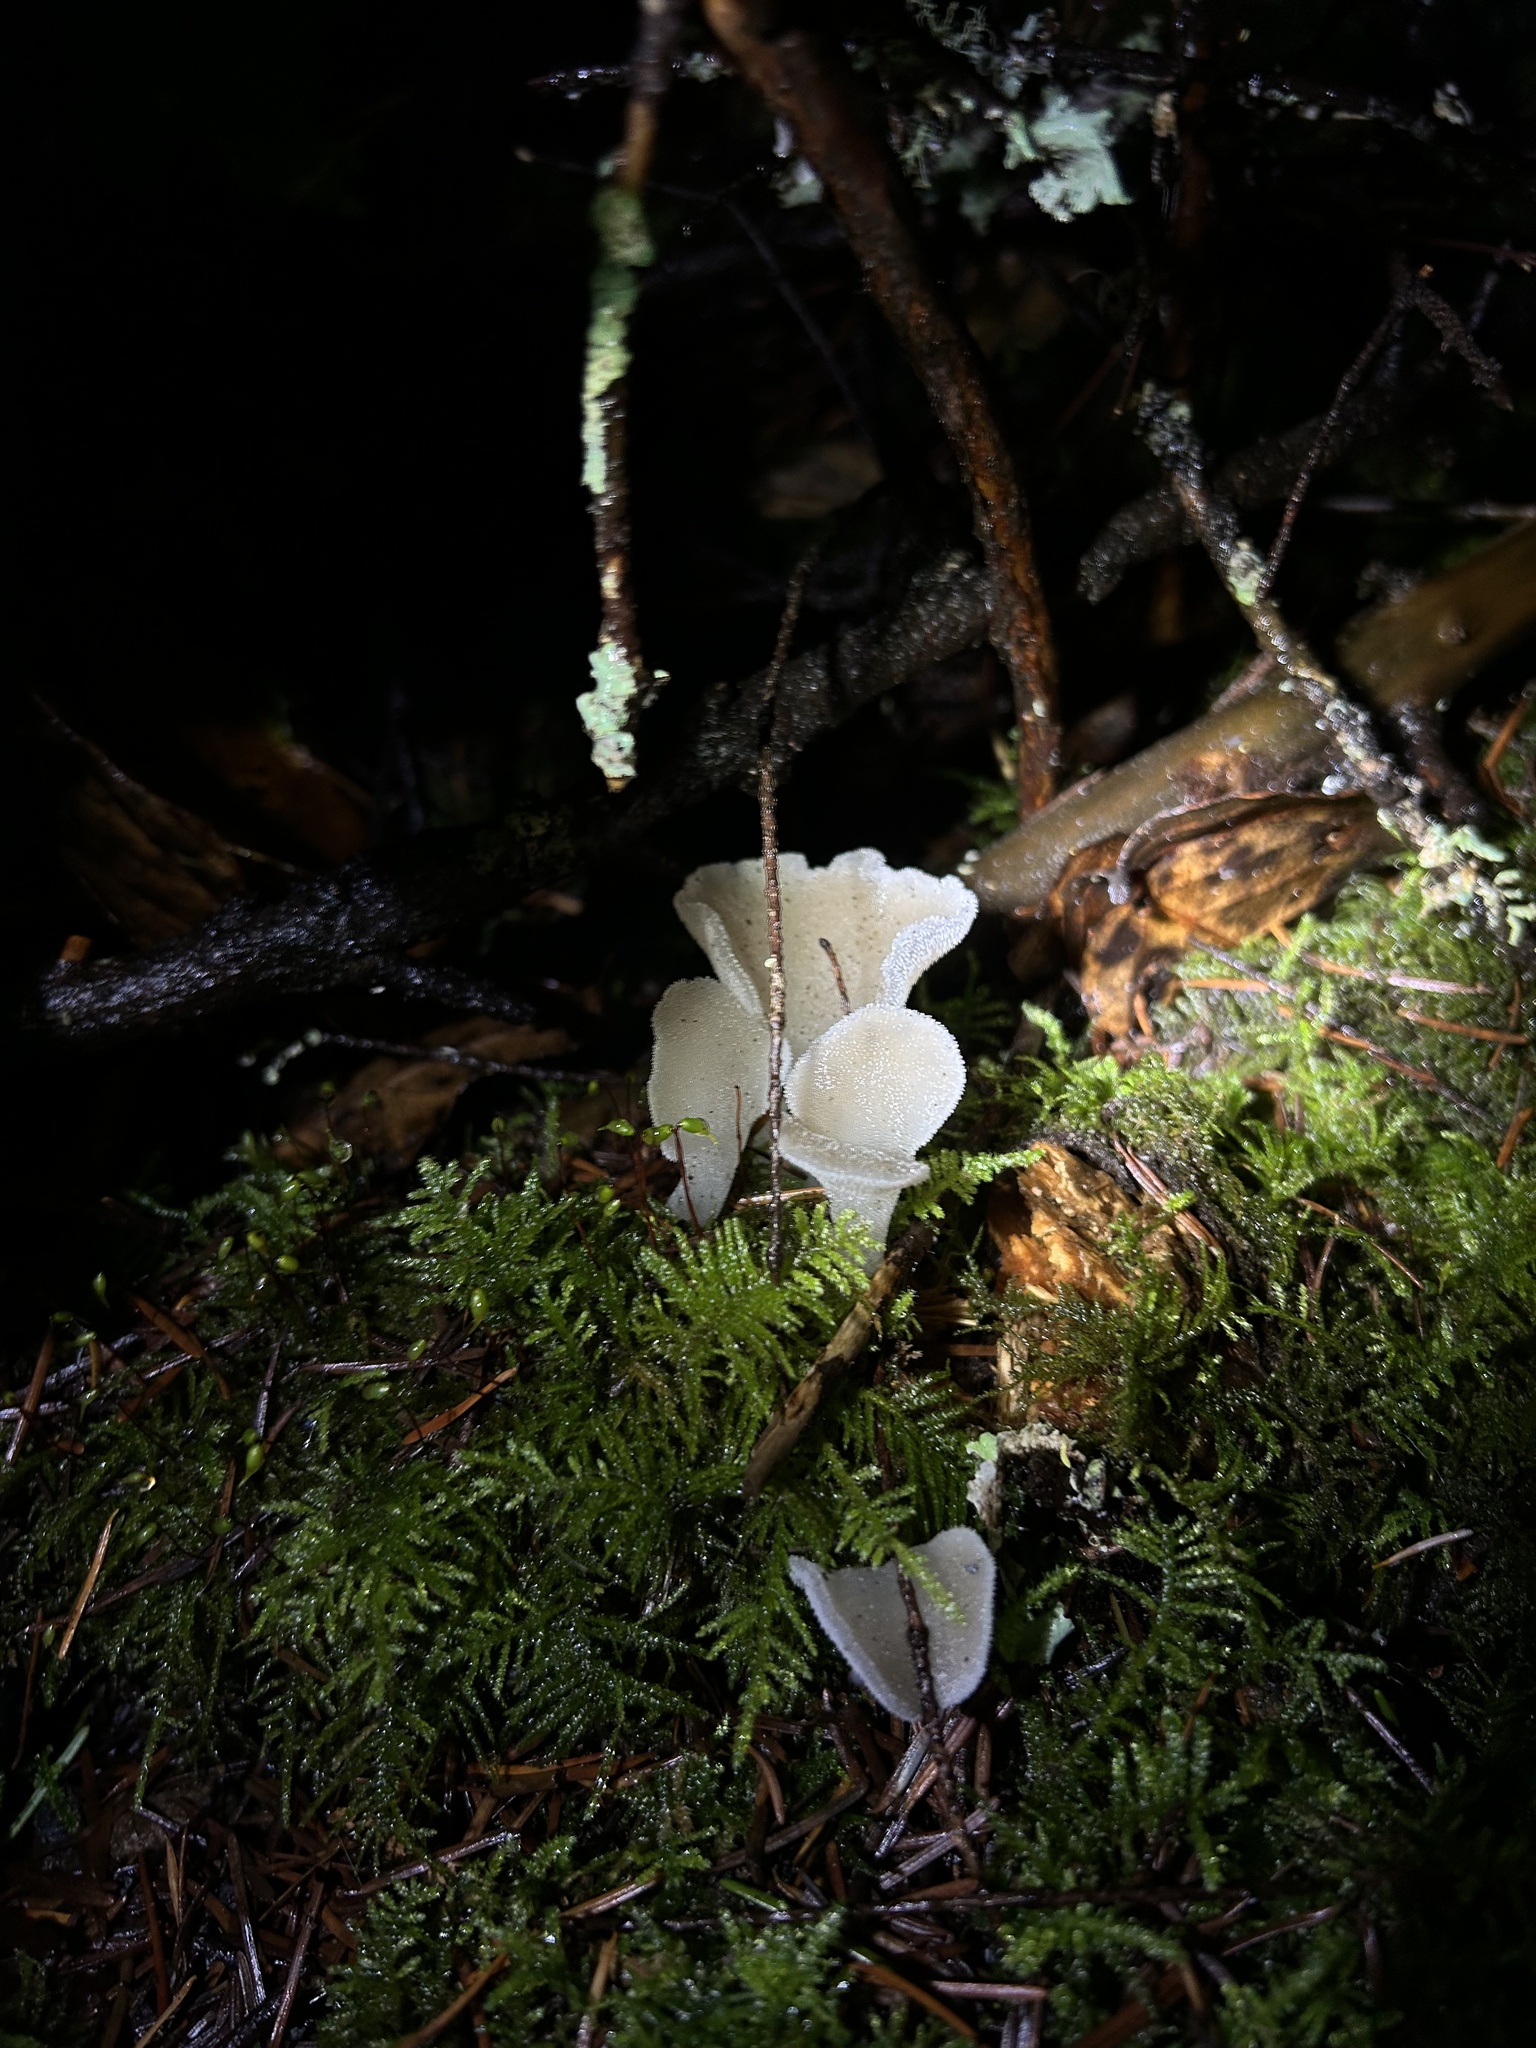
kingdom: Fungi
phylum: Basidiomycota
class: Agaricomycetes
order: Auriculariales
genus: Pseudohydnum
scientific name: Pseudohydnum gelatinosum
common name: Jelly tongue
